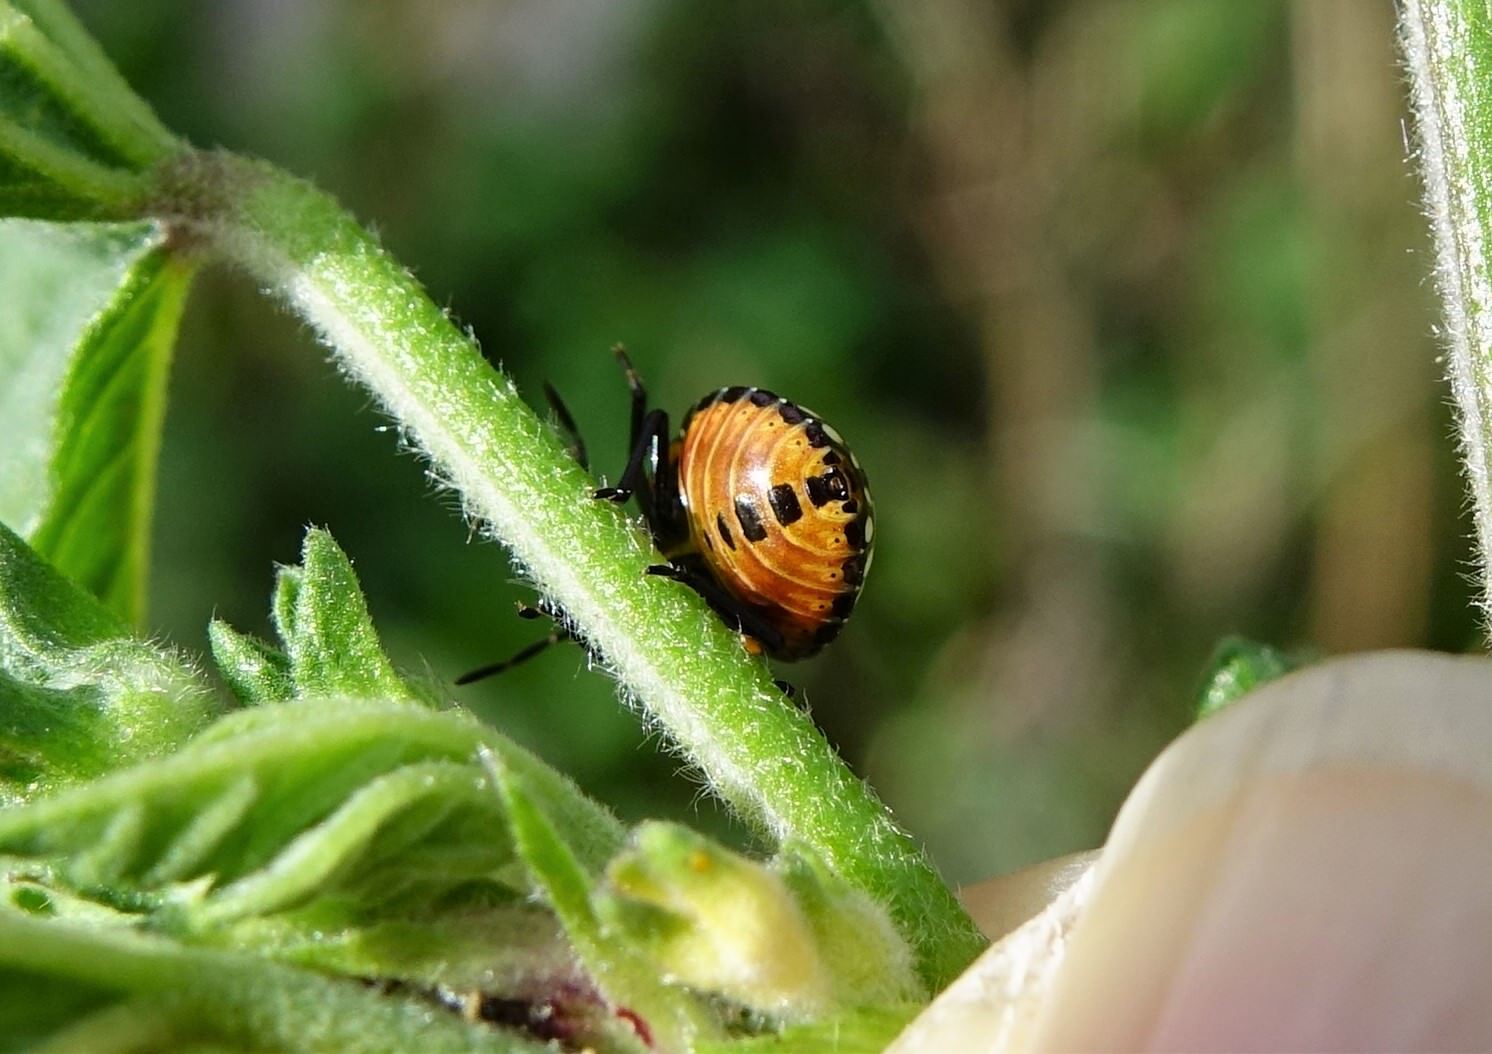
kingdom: Animalia
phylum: Arthropoda
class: Insecta
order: Hemiptera
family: Pentatomidae
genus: Nezara
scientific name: Nezara viridula
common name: Southern green stink bug
